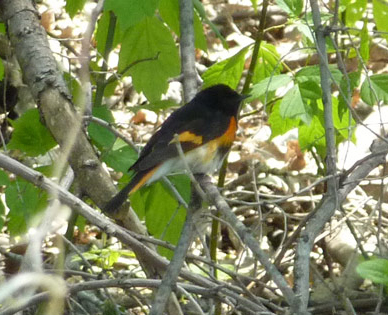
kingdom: Animalia
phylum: Chordata
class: Aves
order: Passeriformes
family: Parulidae
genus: Setophaga
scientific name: Setophaga ruticilla
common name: American redstart
